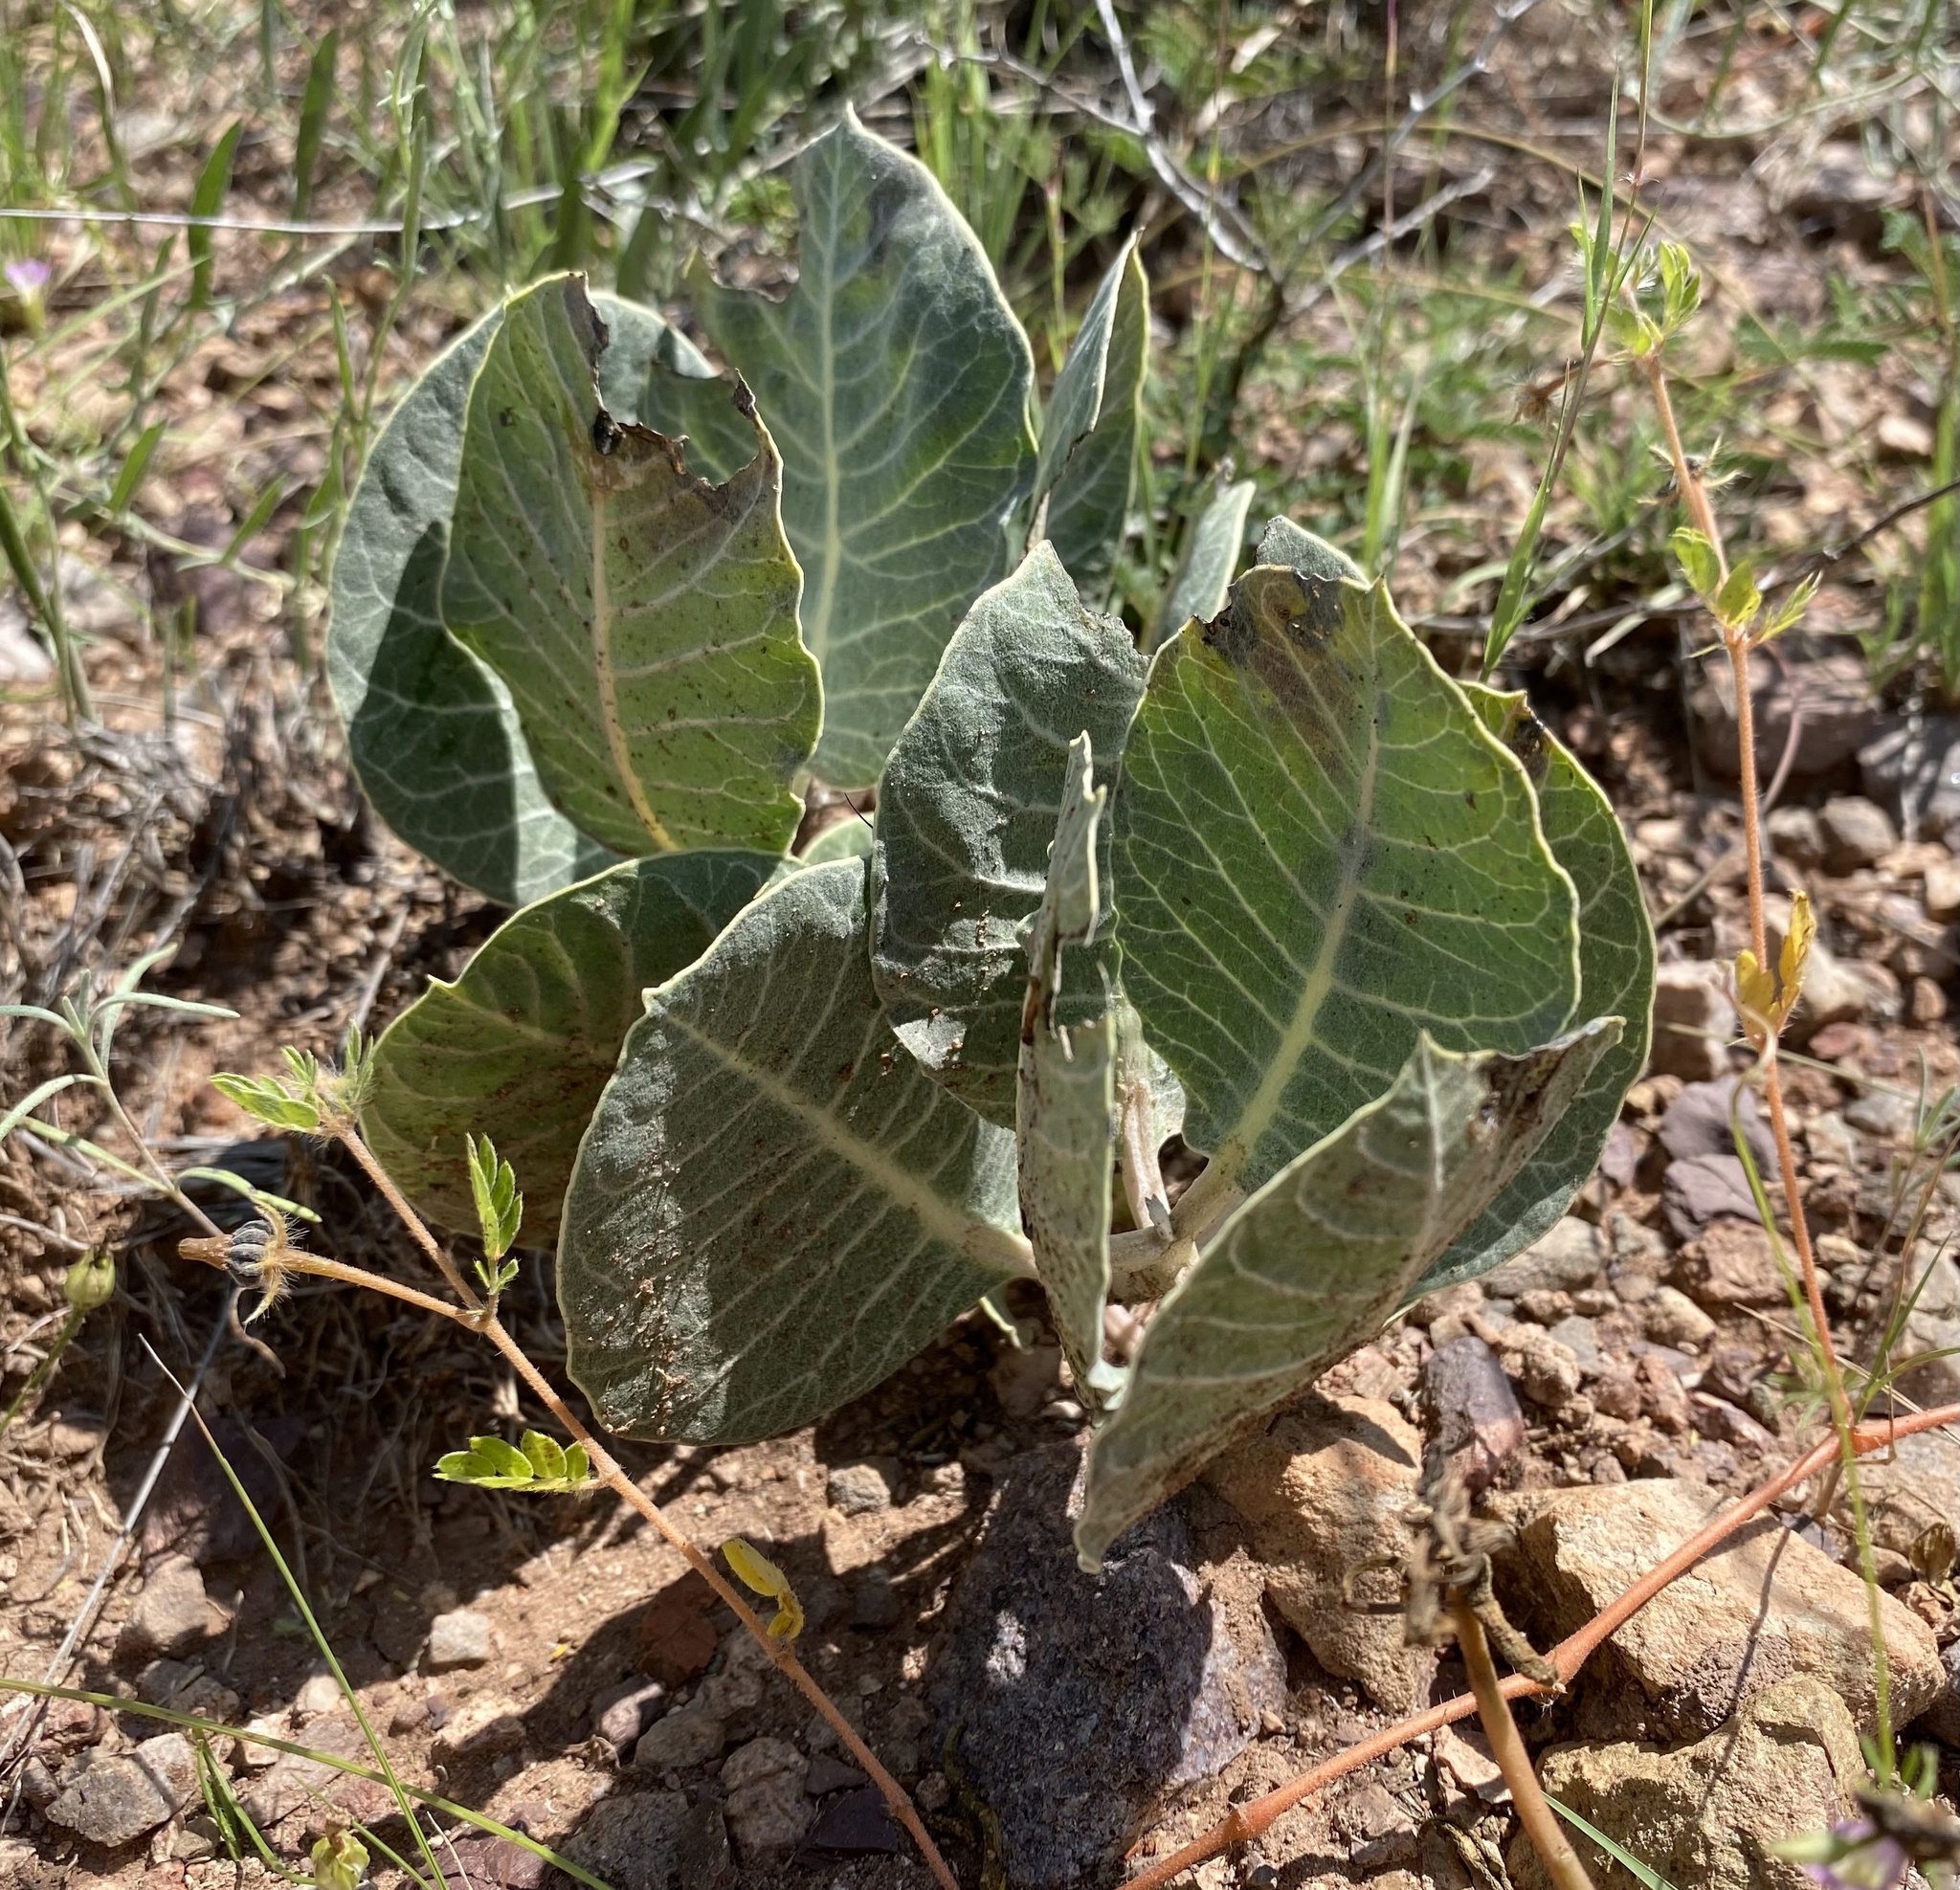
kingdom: Plantae
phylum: Tracheophyta
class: Magnoliopsida
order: Gentianales
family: Apocynaceae
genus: Asclepias
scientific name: Asclepias nummularia
